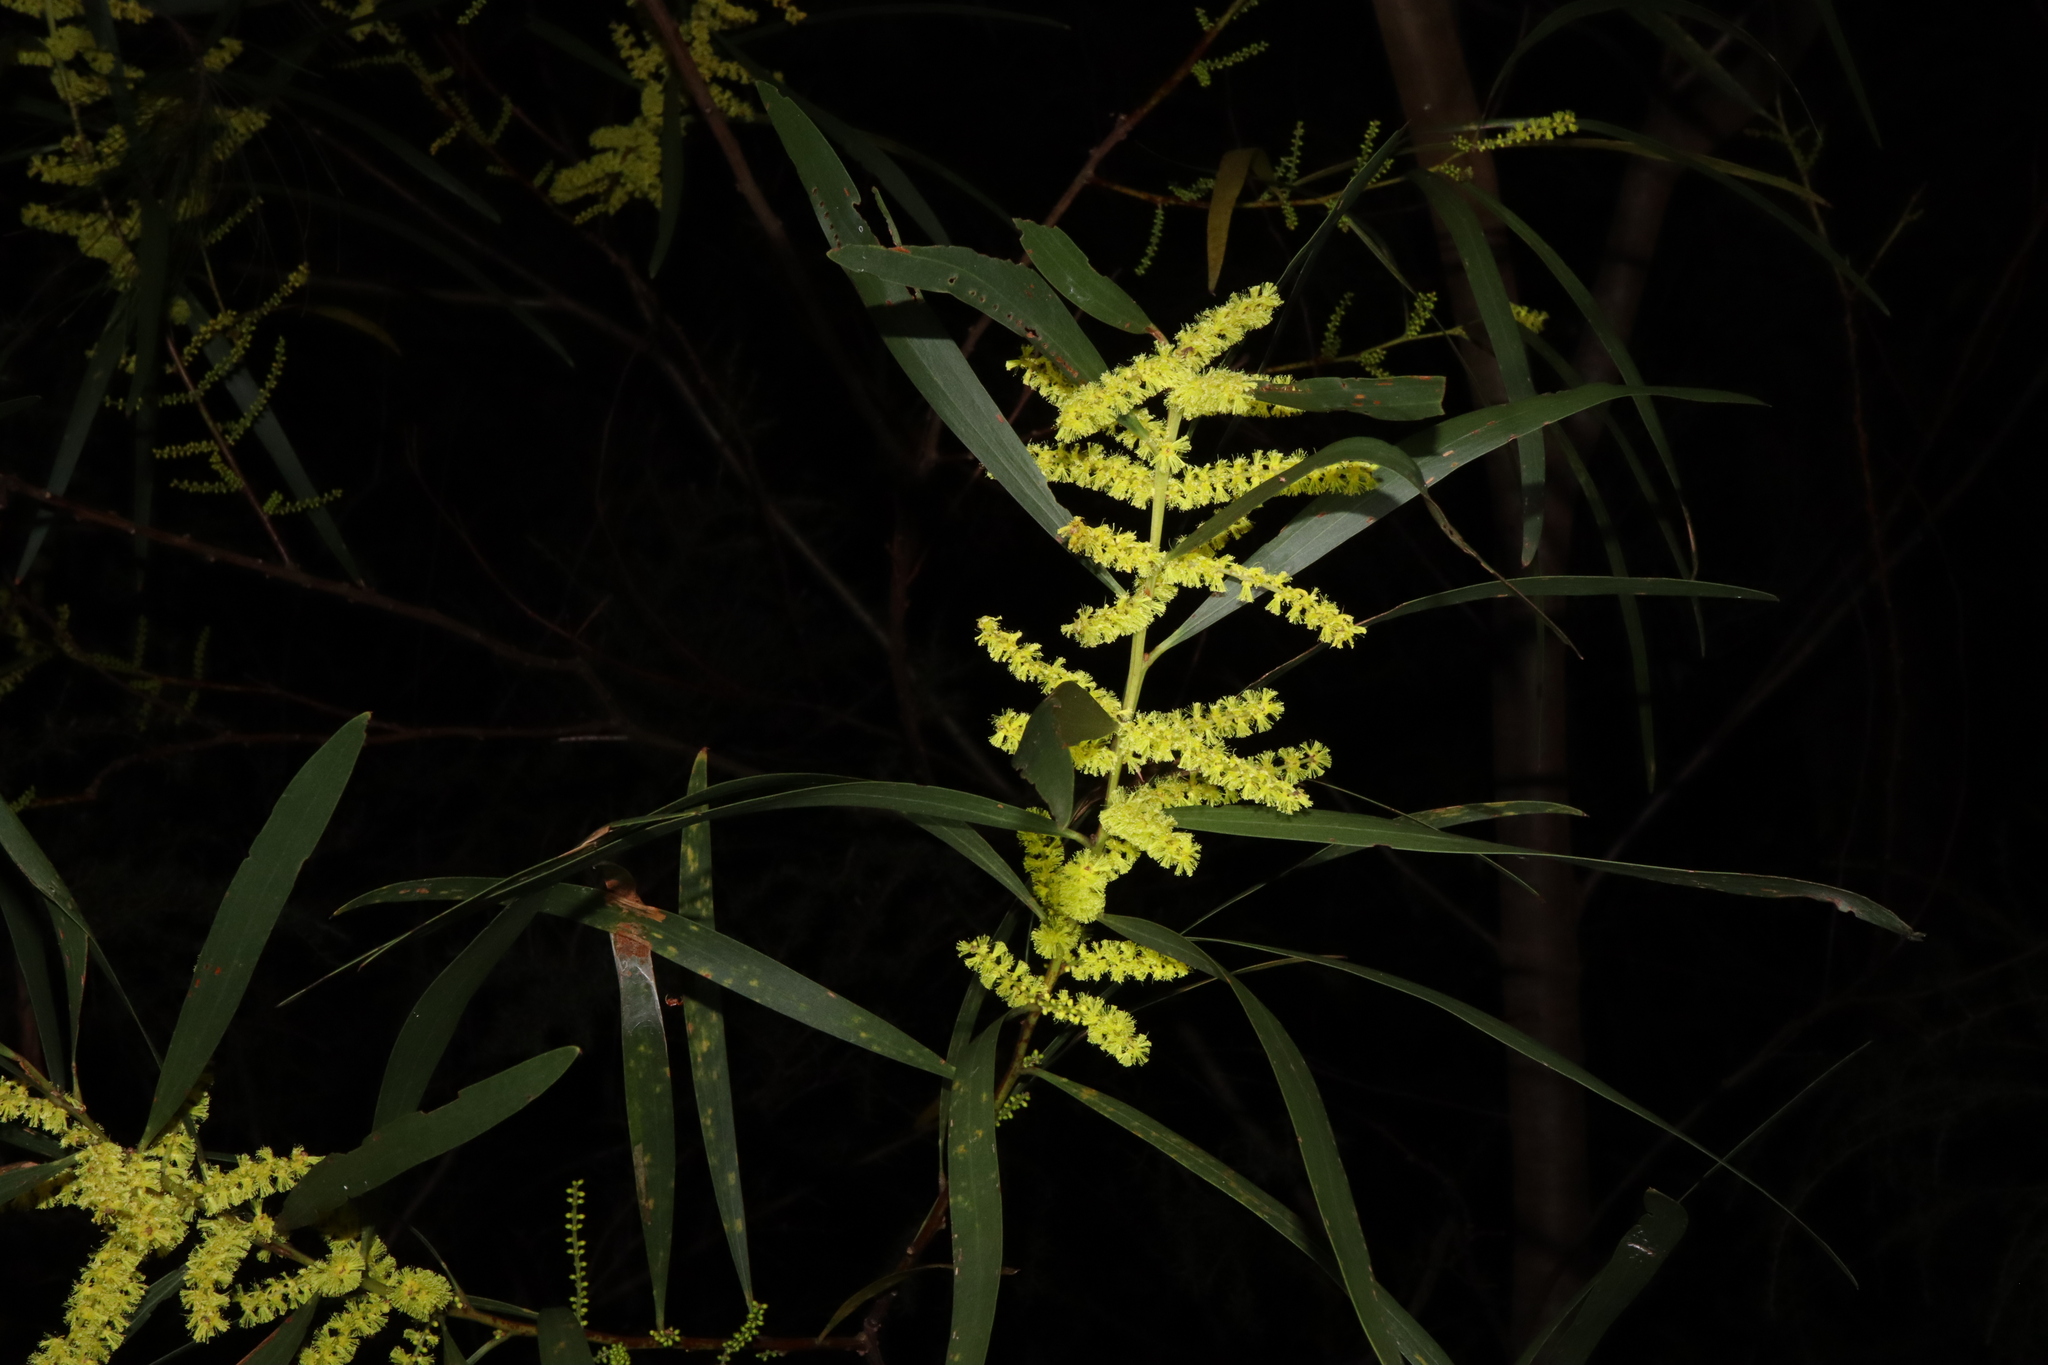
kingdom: Plantae
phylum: Tracheophyta
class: Magnoliopsida
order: Fabales
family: Fabaceae
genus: Acacia
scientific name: Acacia longifolia
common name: Sydney golden wattle
